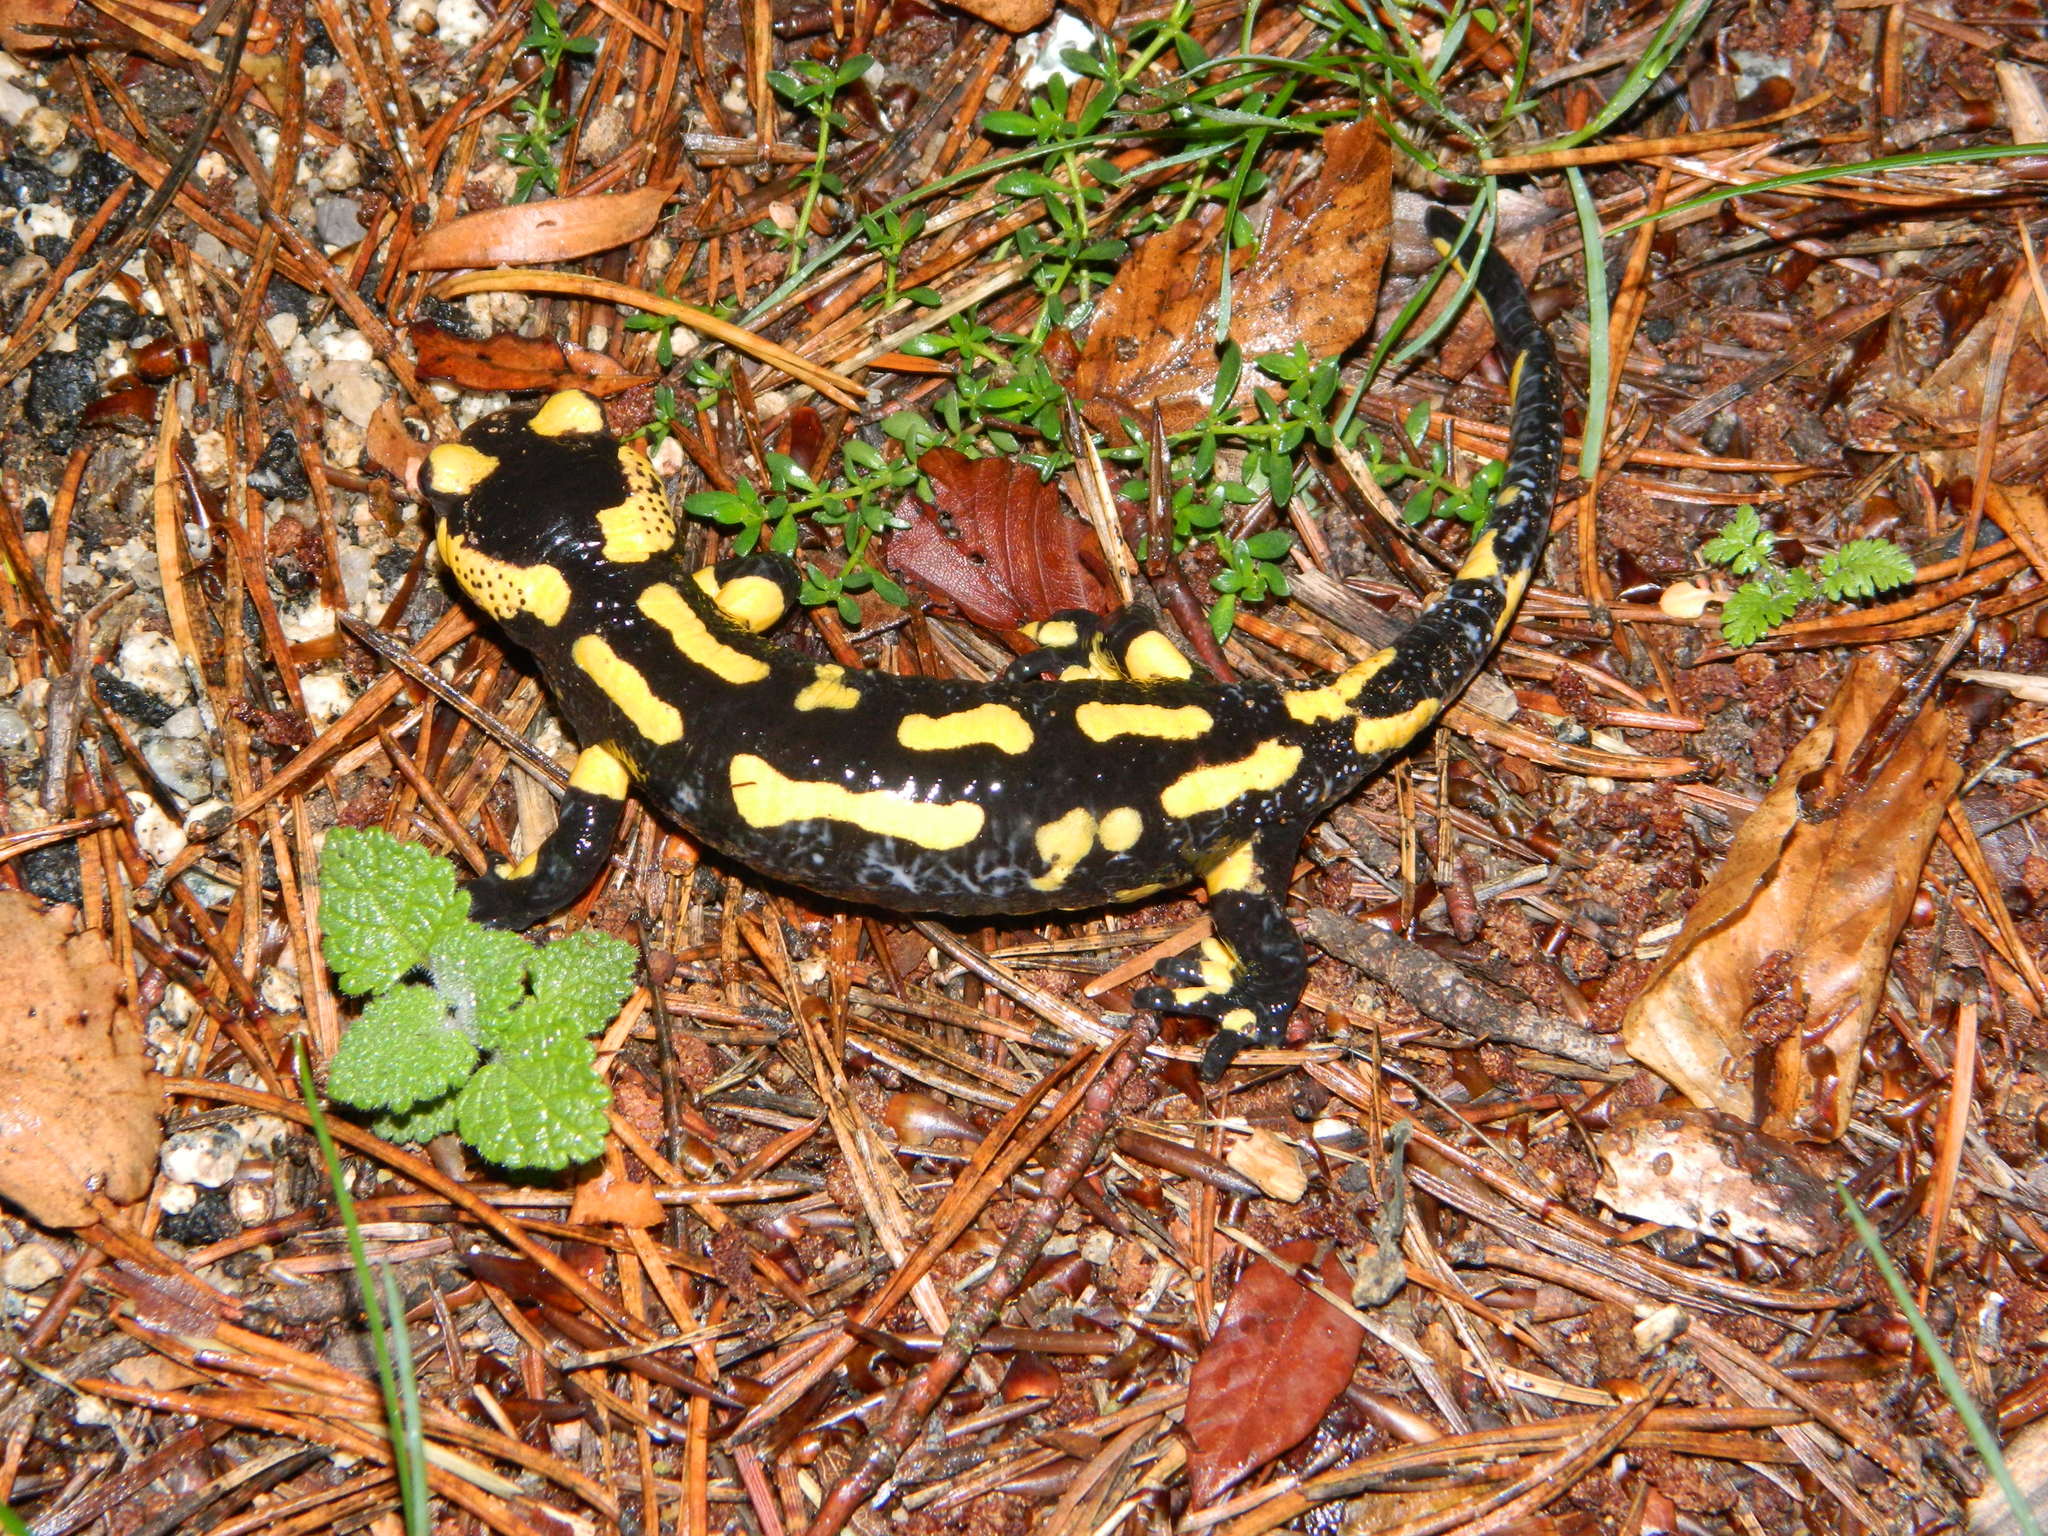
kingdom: Animalia
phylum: Chordata
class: Amphibia
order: Caudata
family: Salamandridae
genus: Salamandra
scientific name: Salamandra salamandra
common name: Fire salamander
